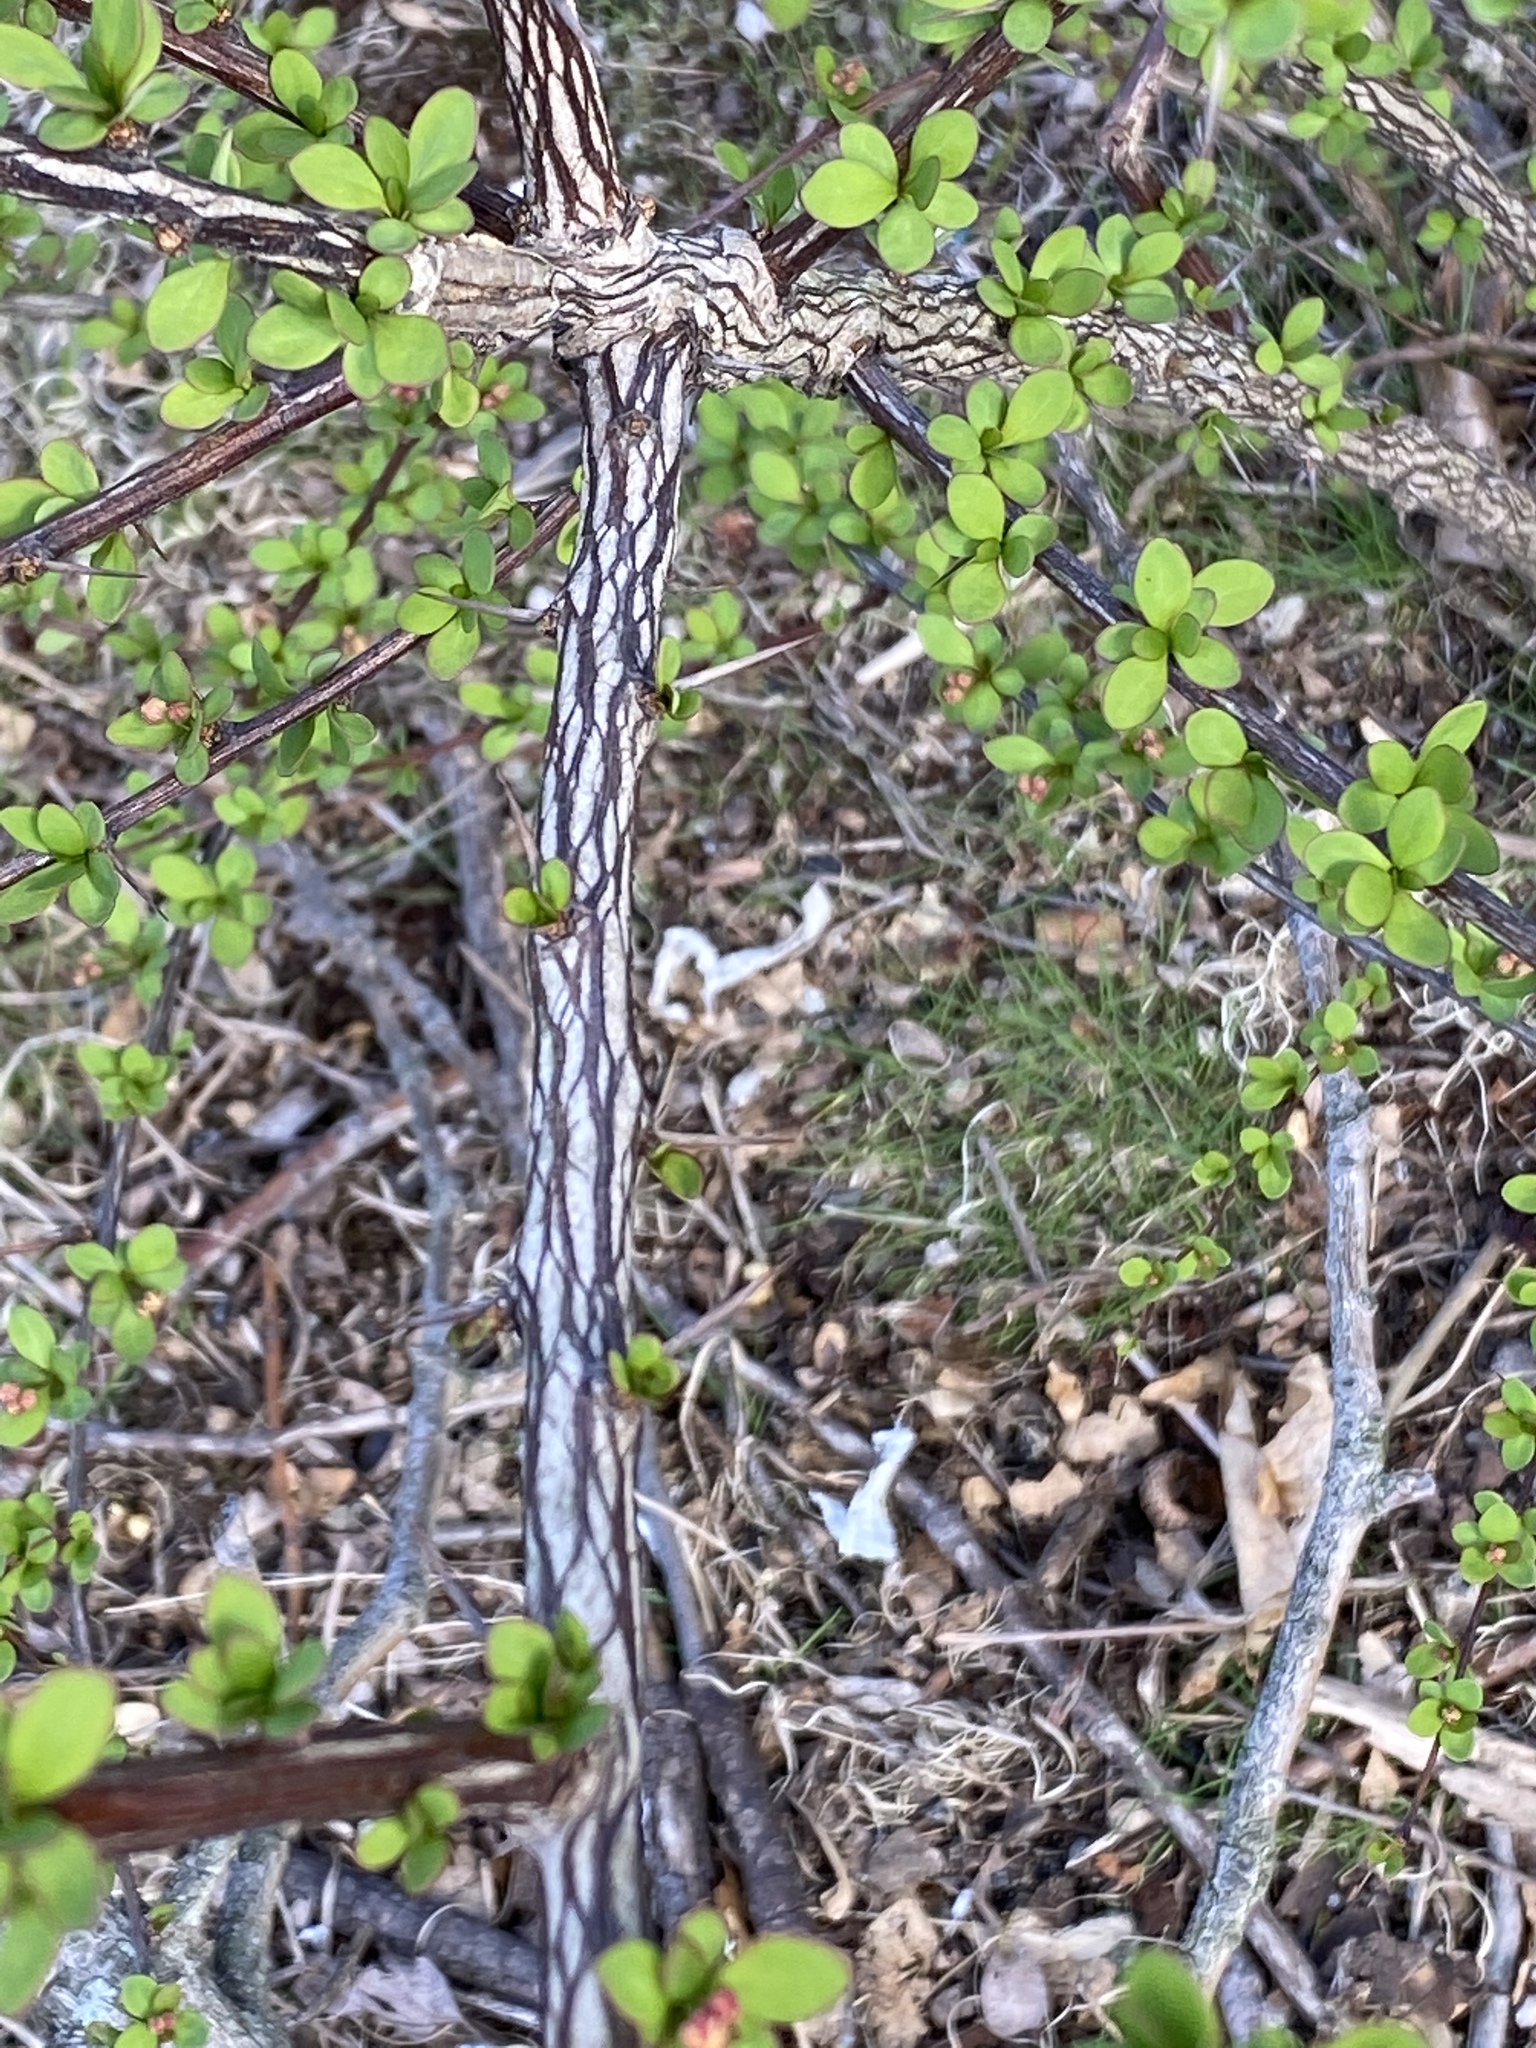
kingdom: Plantae
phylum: Tracheophyta
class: Magnoliopsida
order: Ranunculales
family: Berberidaceae
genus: Berberis
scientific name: Berberis thunbergii
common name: Japanese barberry
